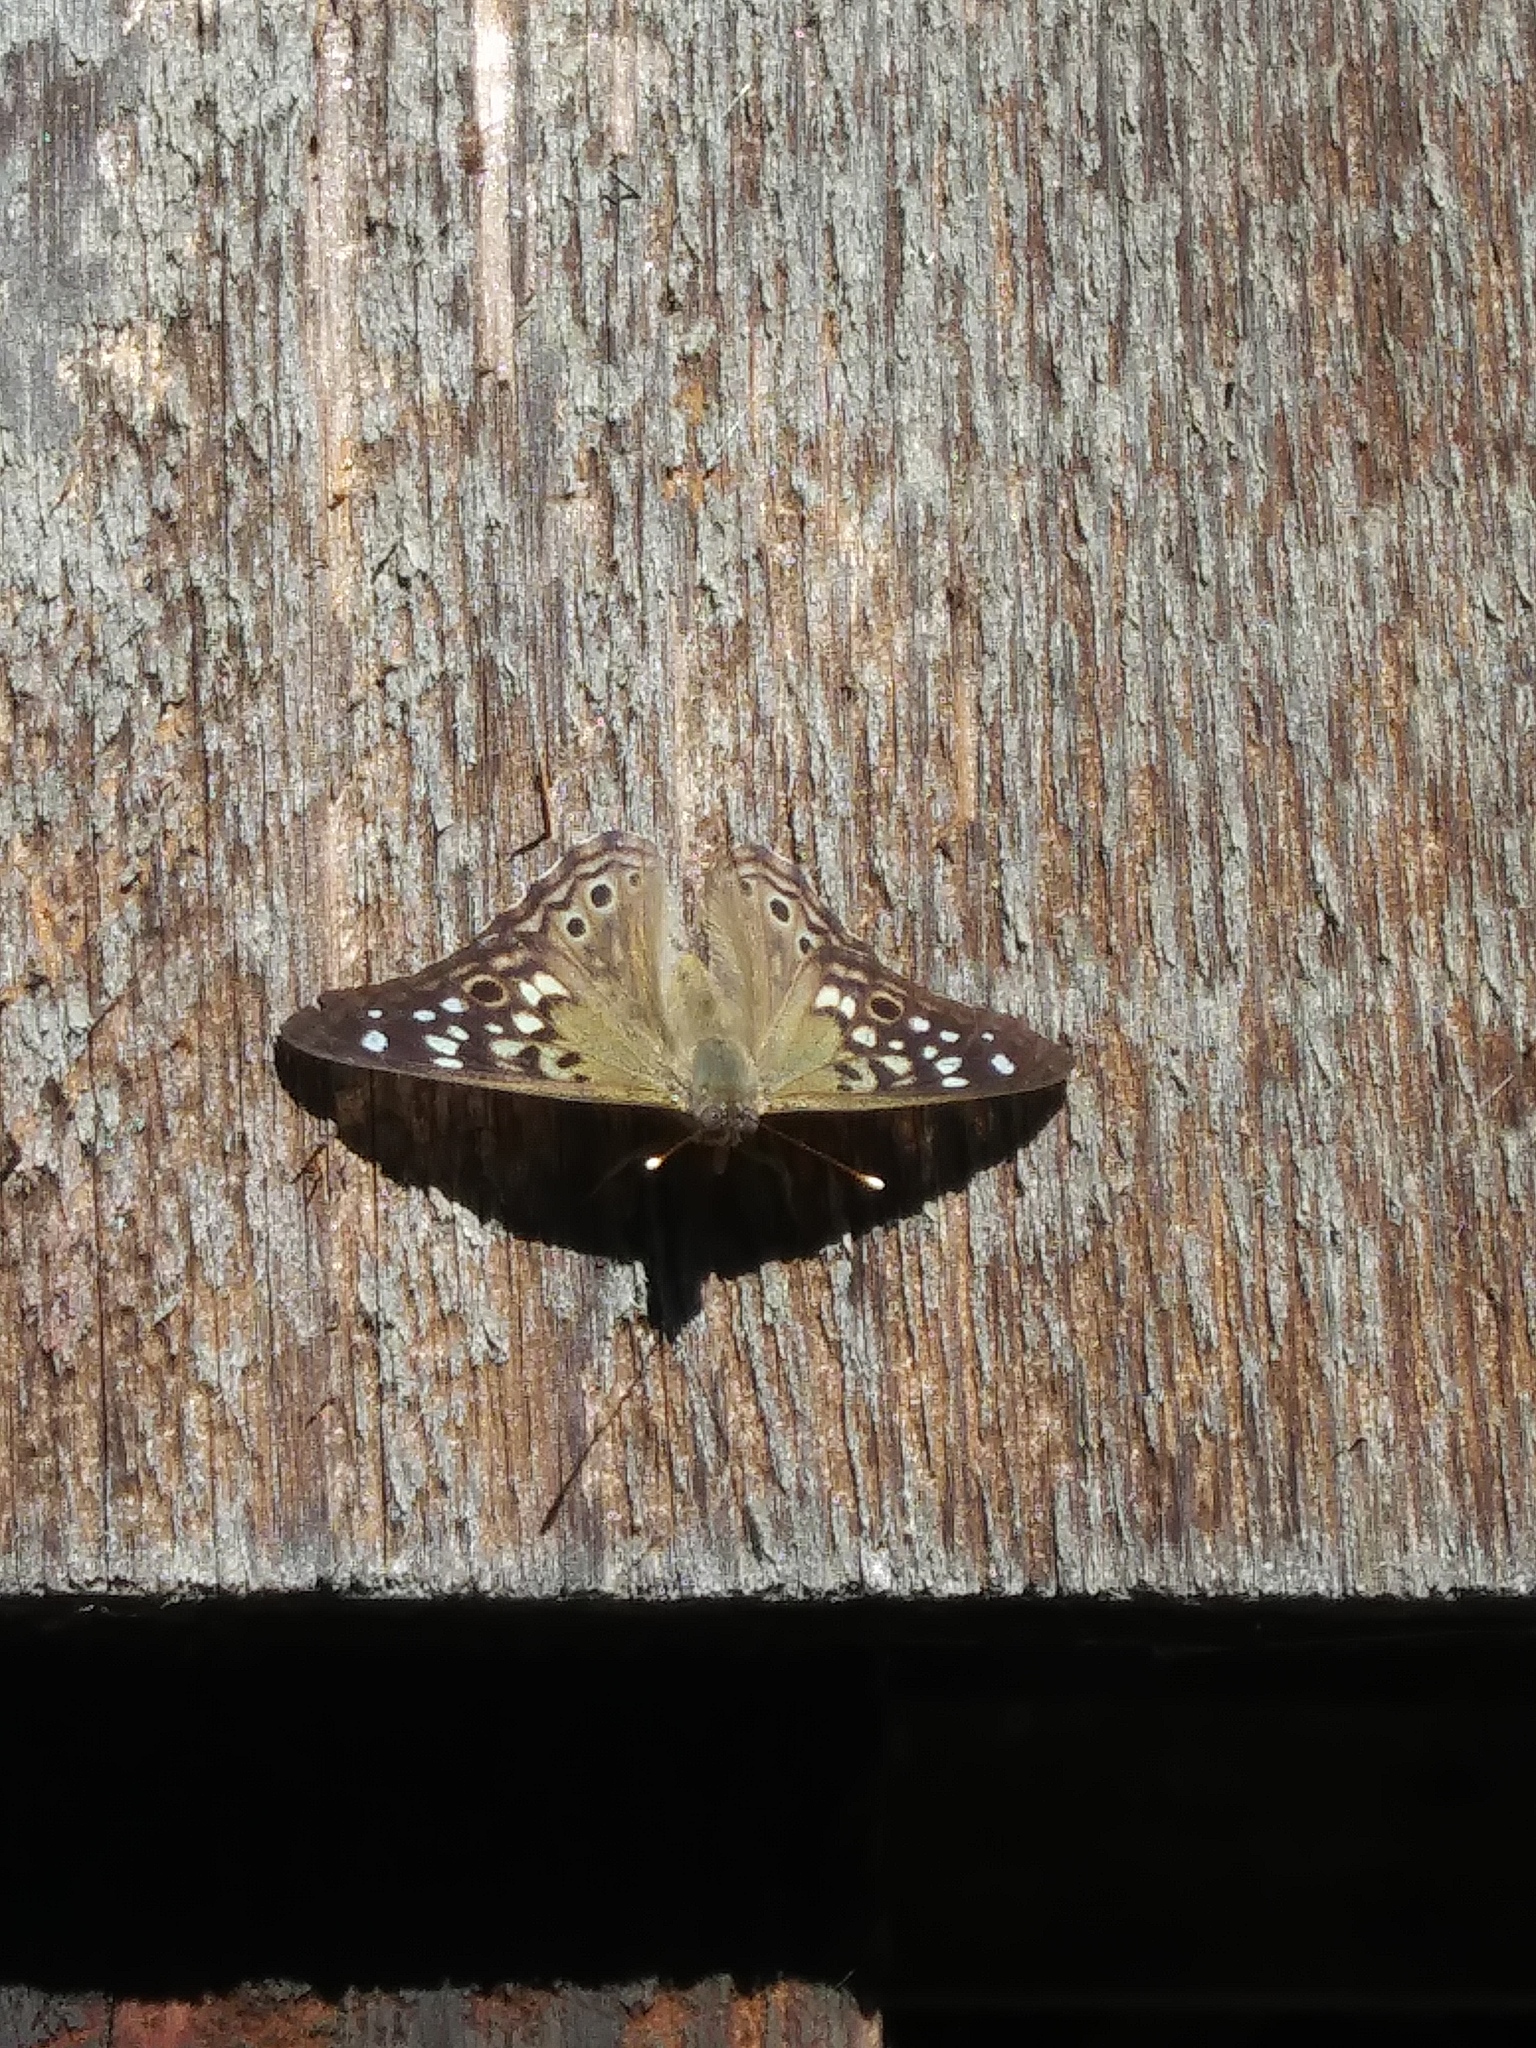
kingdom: Animalia
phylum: Arthropoda
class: Insecta
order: Lepidoptera
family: Nymphalidae
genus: Asterocampa
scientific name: Asterocampa celtis
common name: Hackberry emperor
